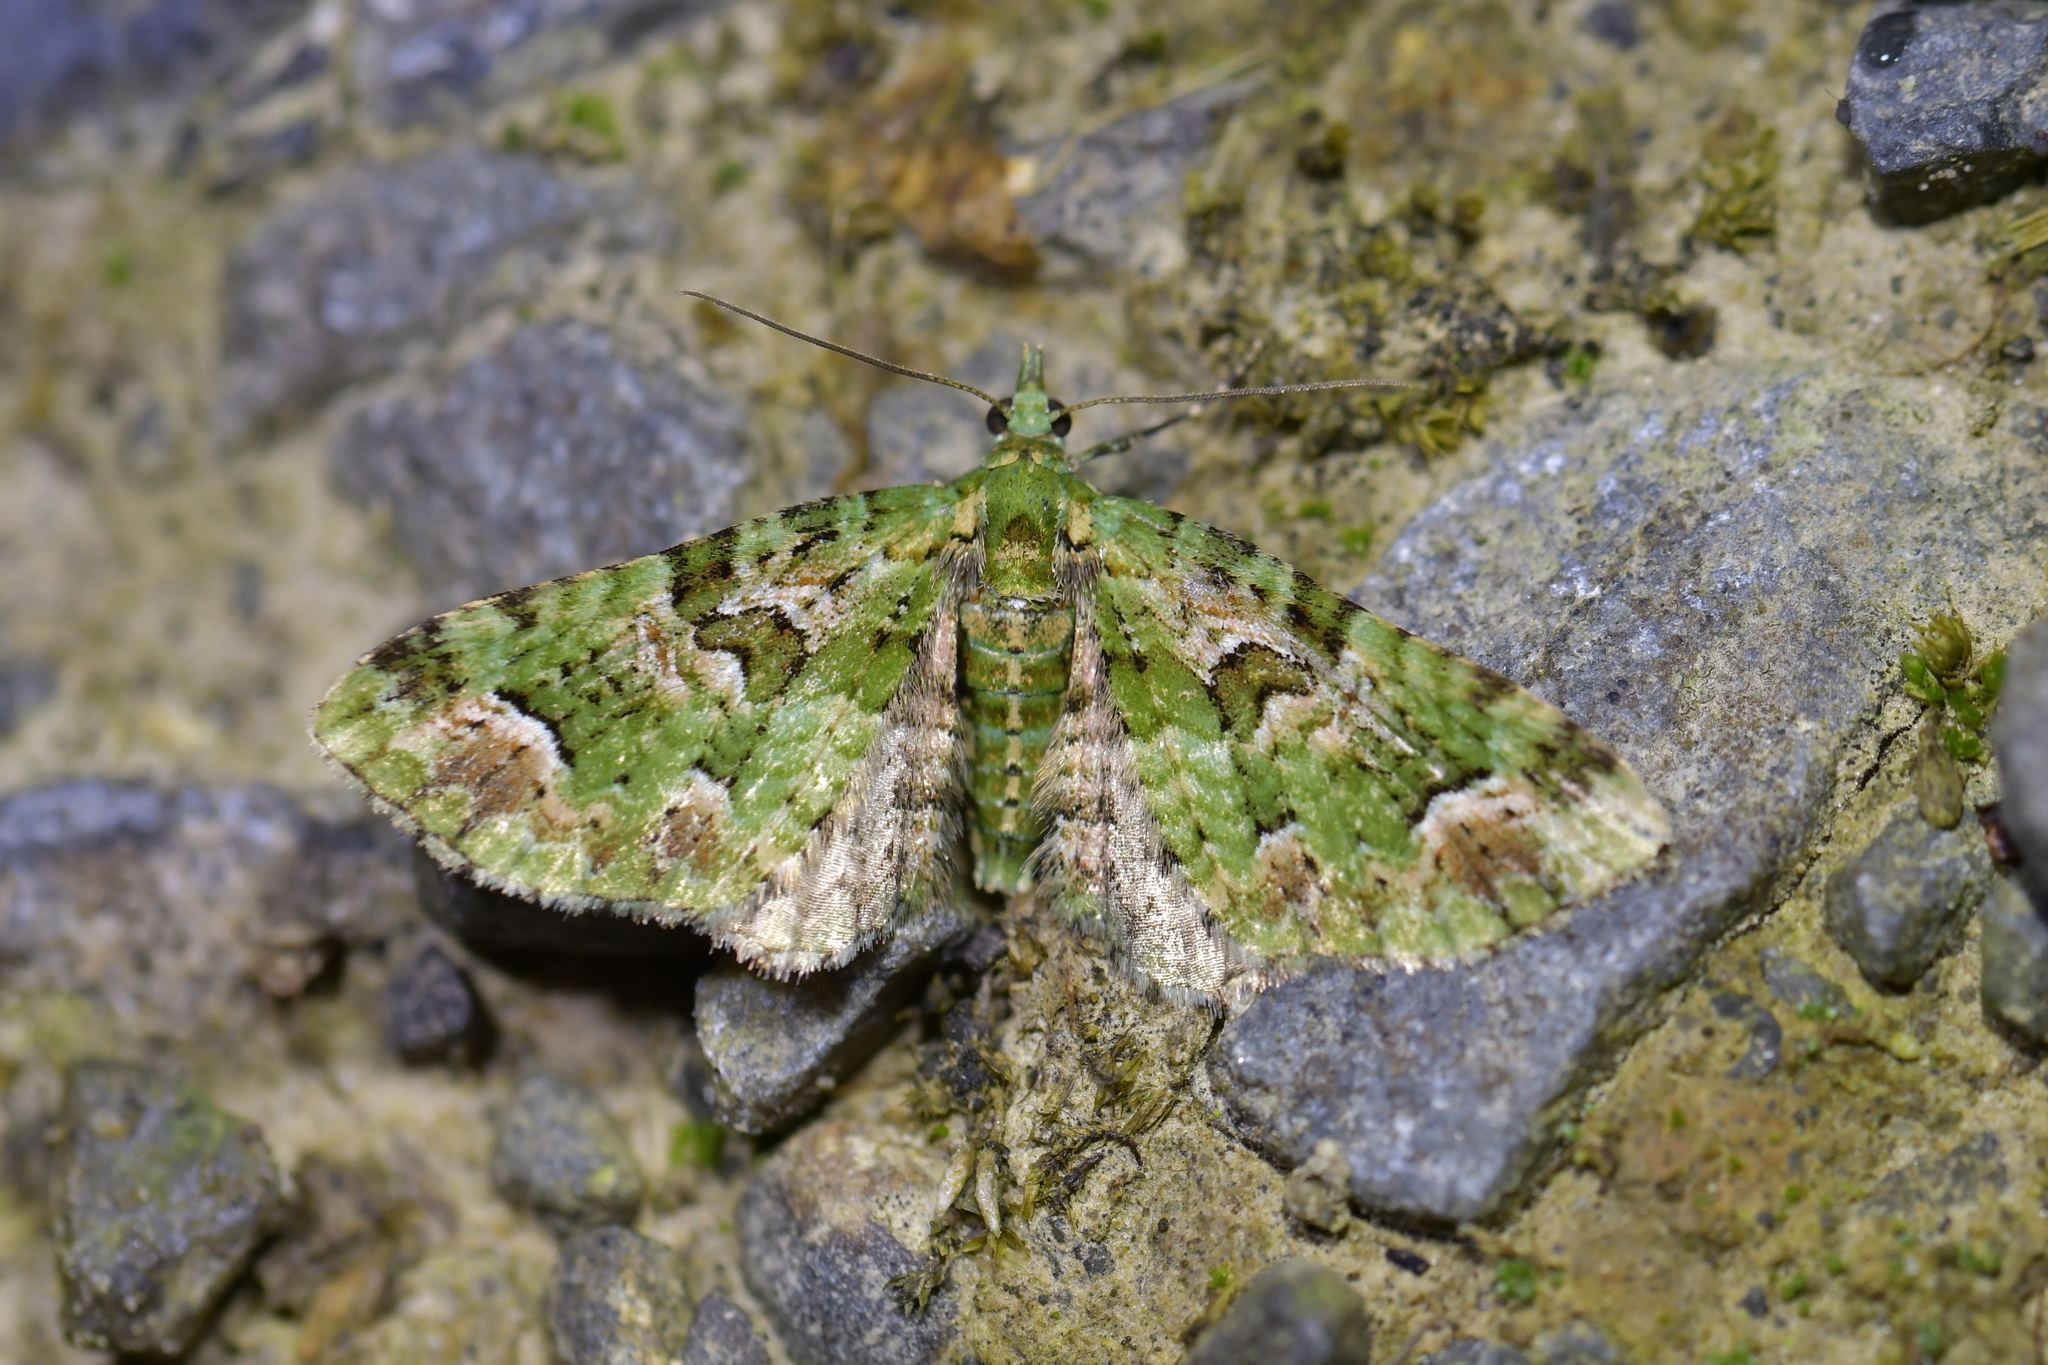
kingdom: Animalia
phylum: Arthropoda
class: Insecta
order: Lepidoptera
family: Geometridae
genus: Pasiphila
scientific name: Pasiphila semochlora
